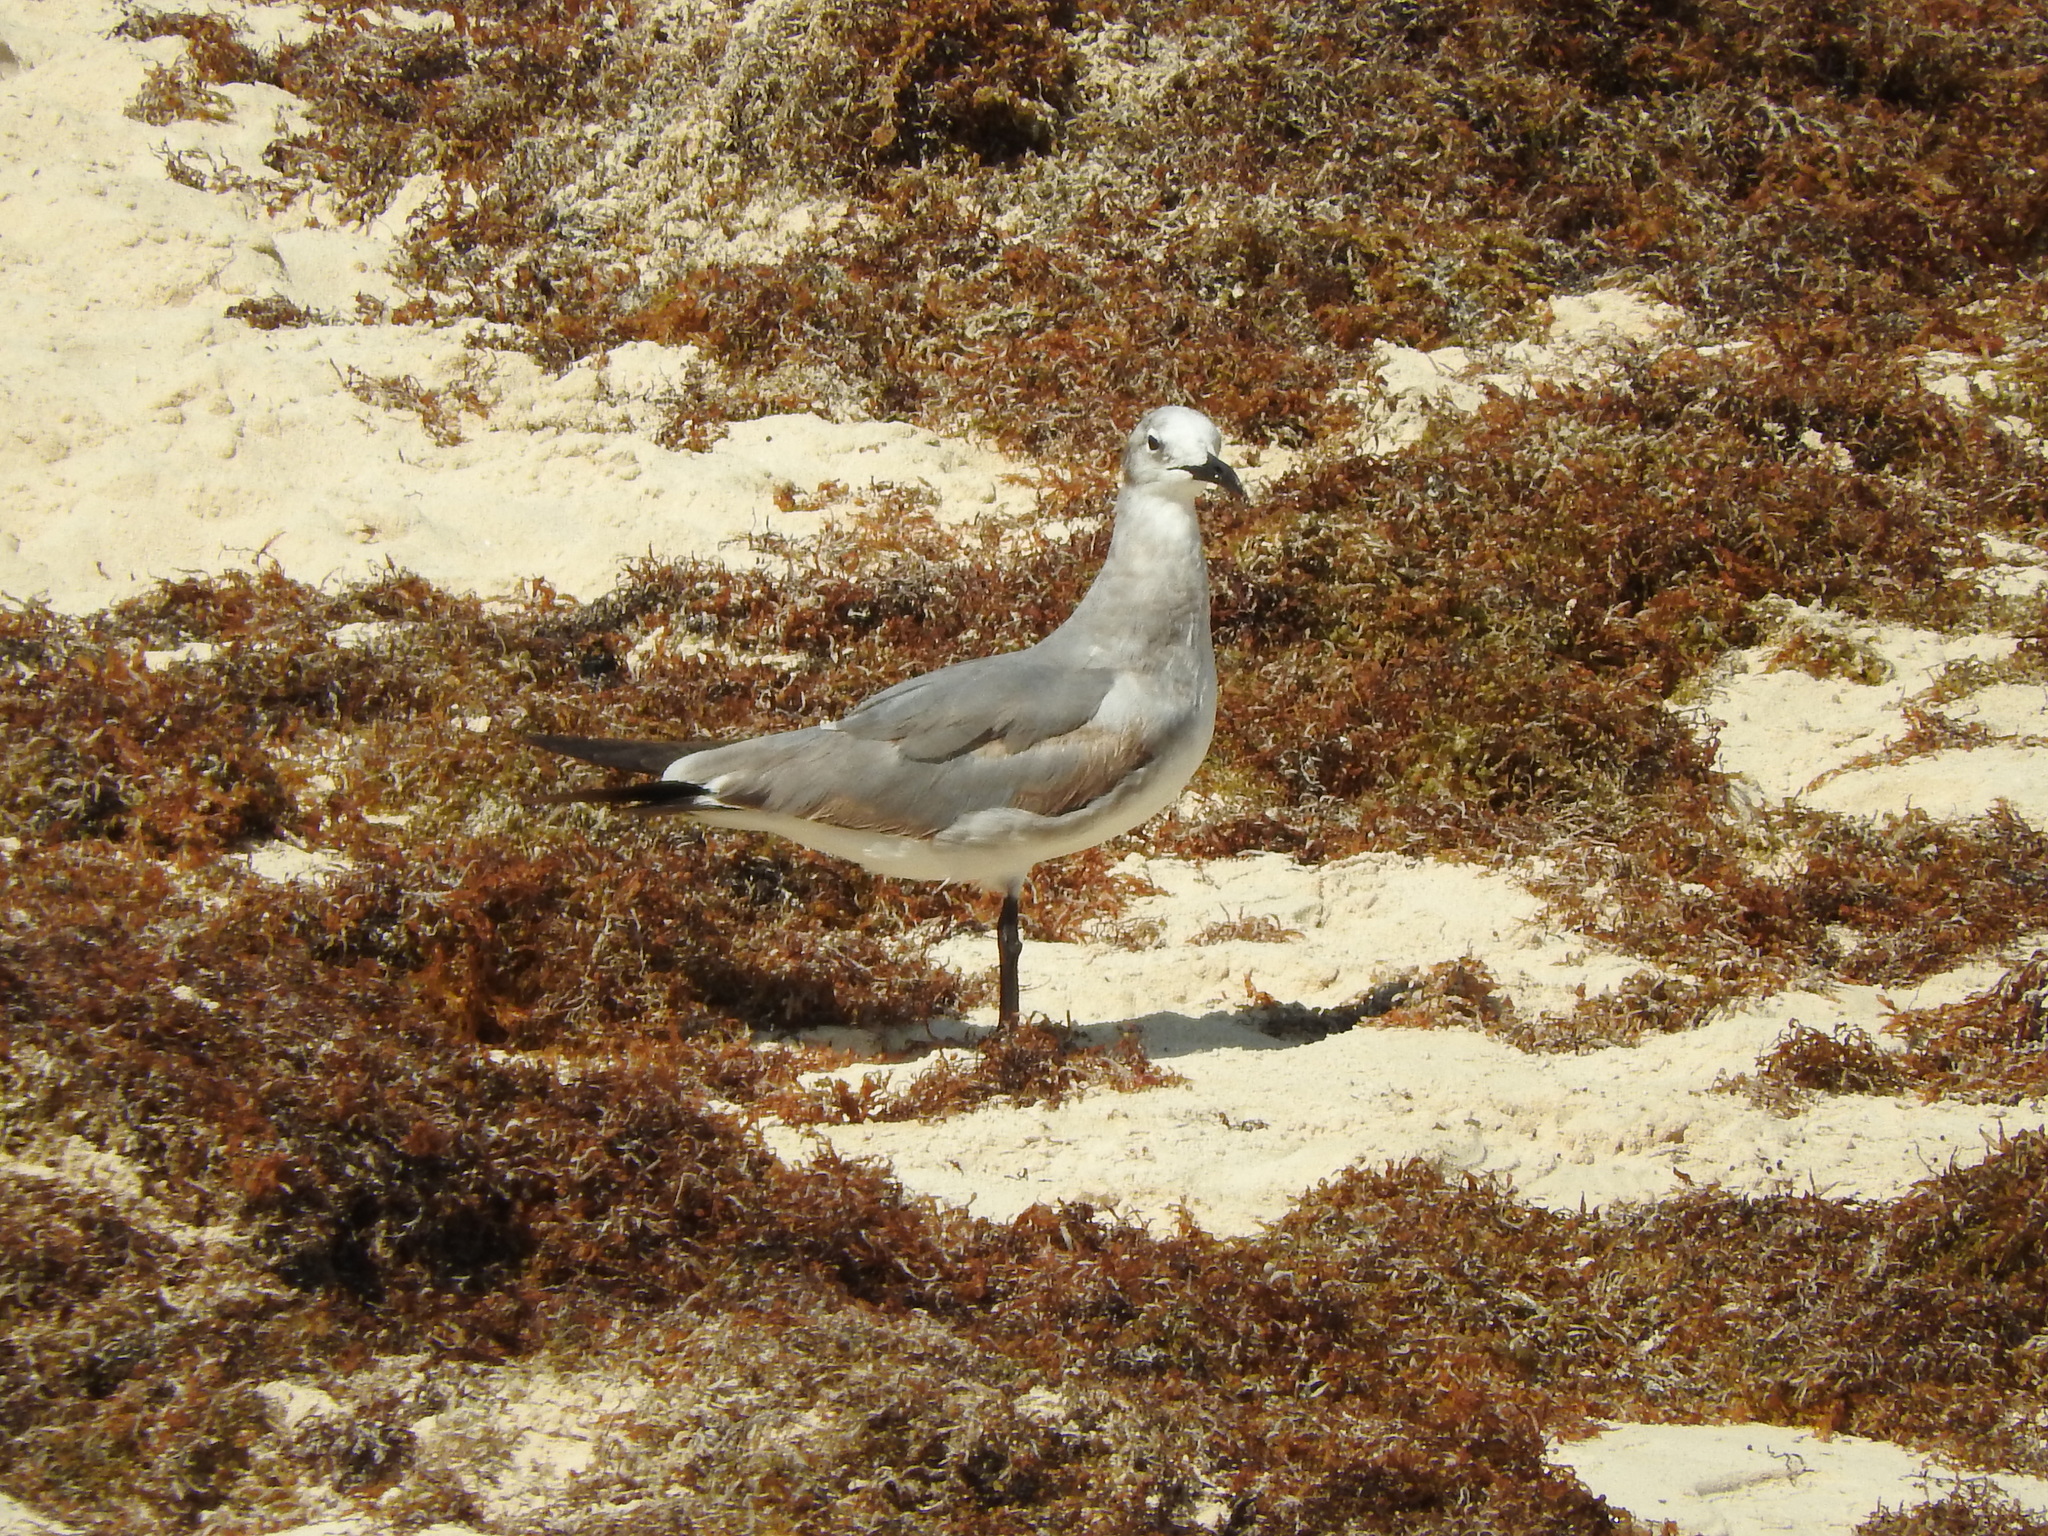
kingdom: Animalia
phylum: Chordata
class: Aves
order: Charadriiformes
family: Laridae
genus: Leucophaeus
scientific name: Leucophaeus atricilla
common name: Laughing gull
